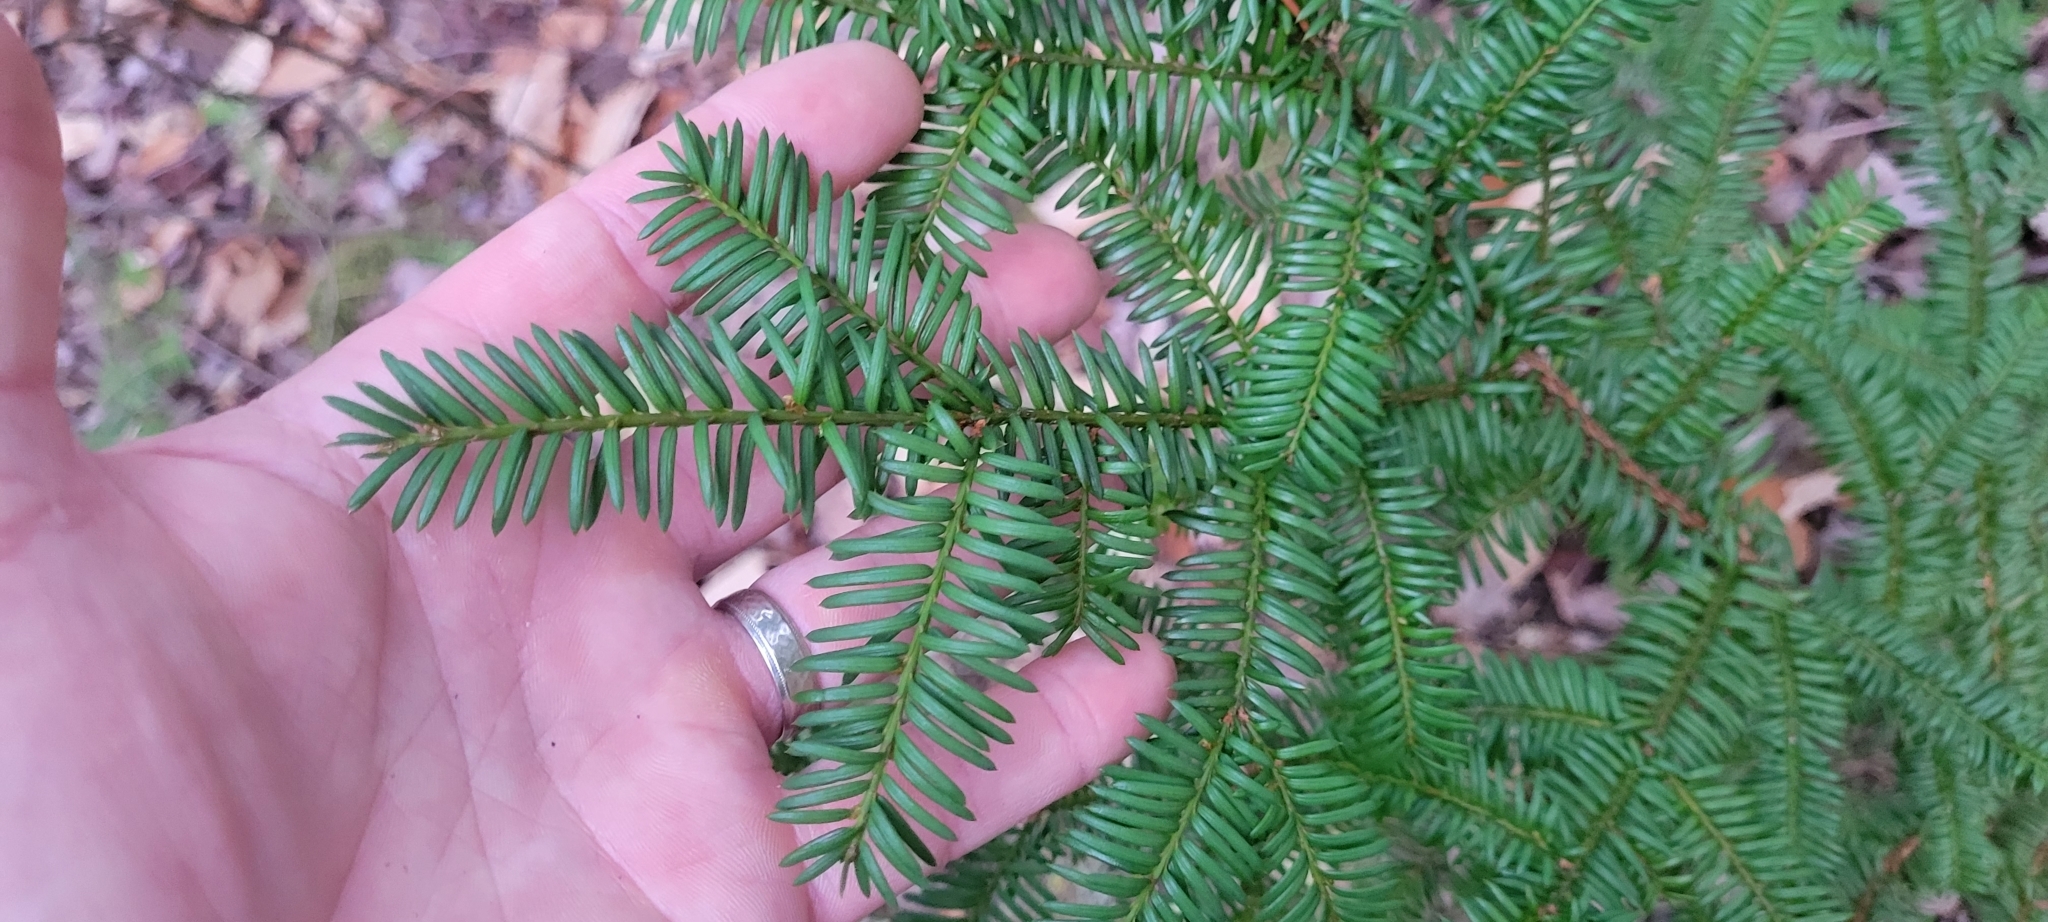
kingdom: Plantae
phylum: Tracheophyta
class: Pinopsida
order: Pinales
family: Taxaceae
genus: Taxus
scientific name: Taxus canadensis
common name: American yew
